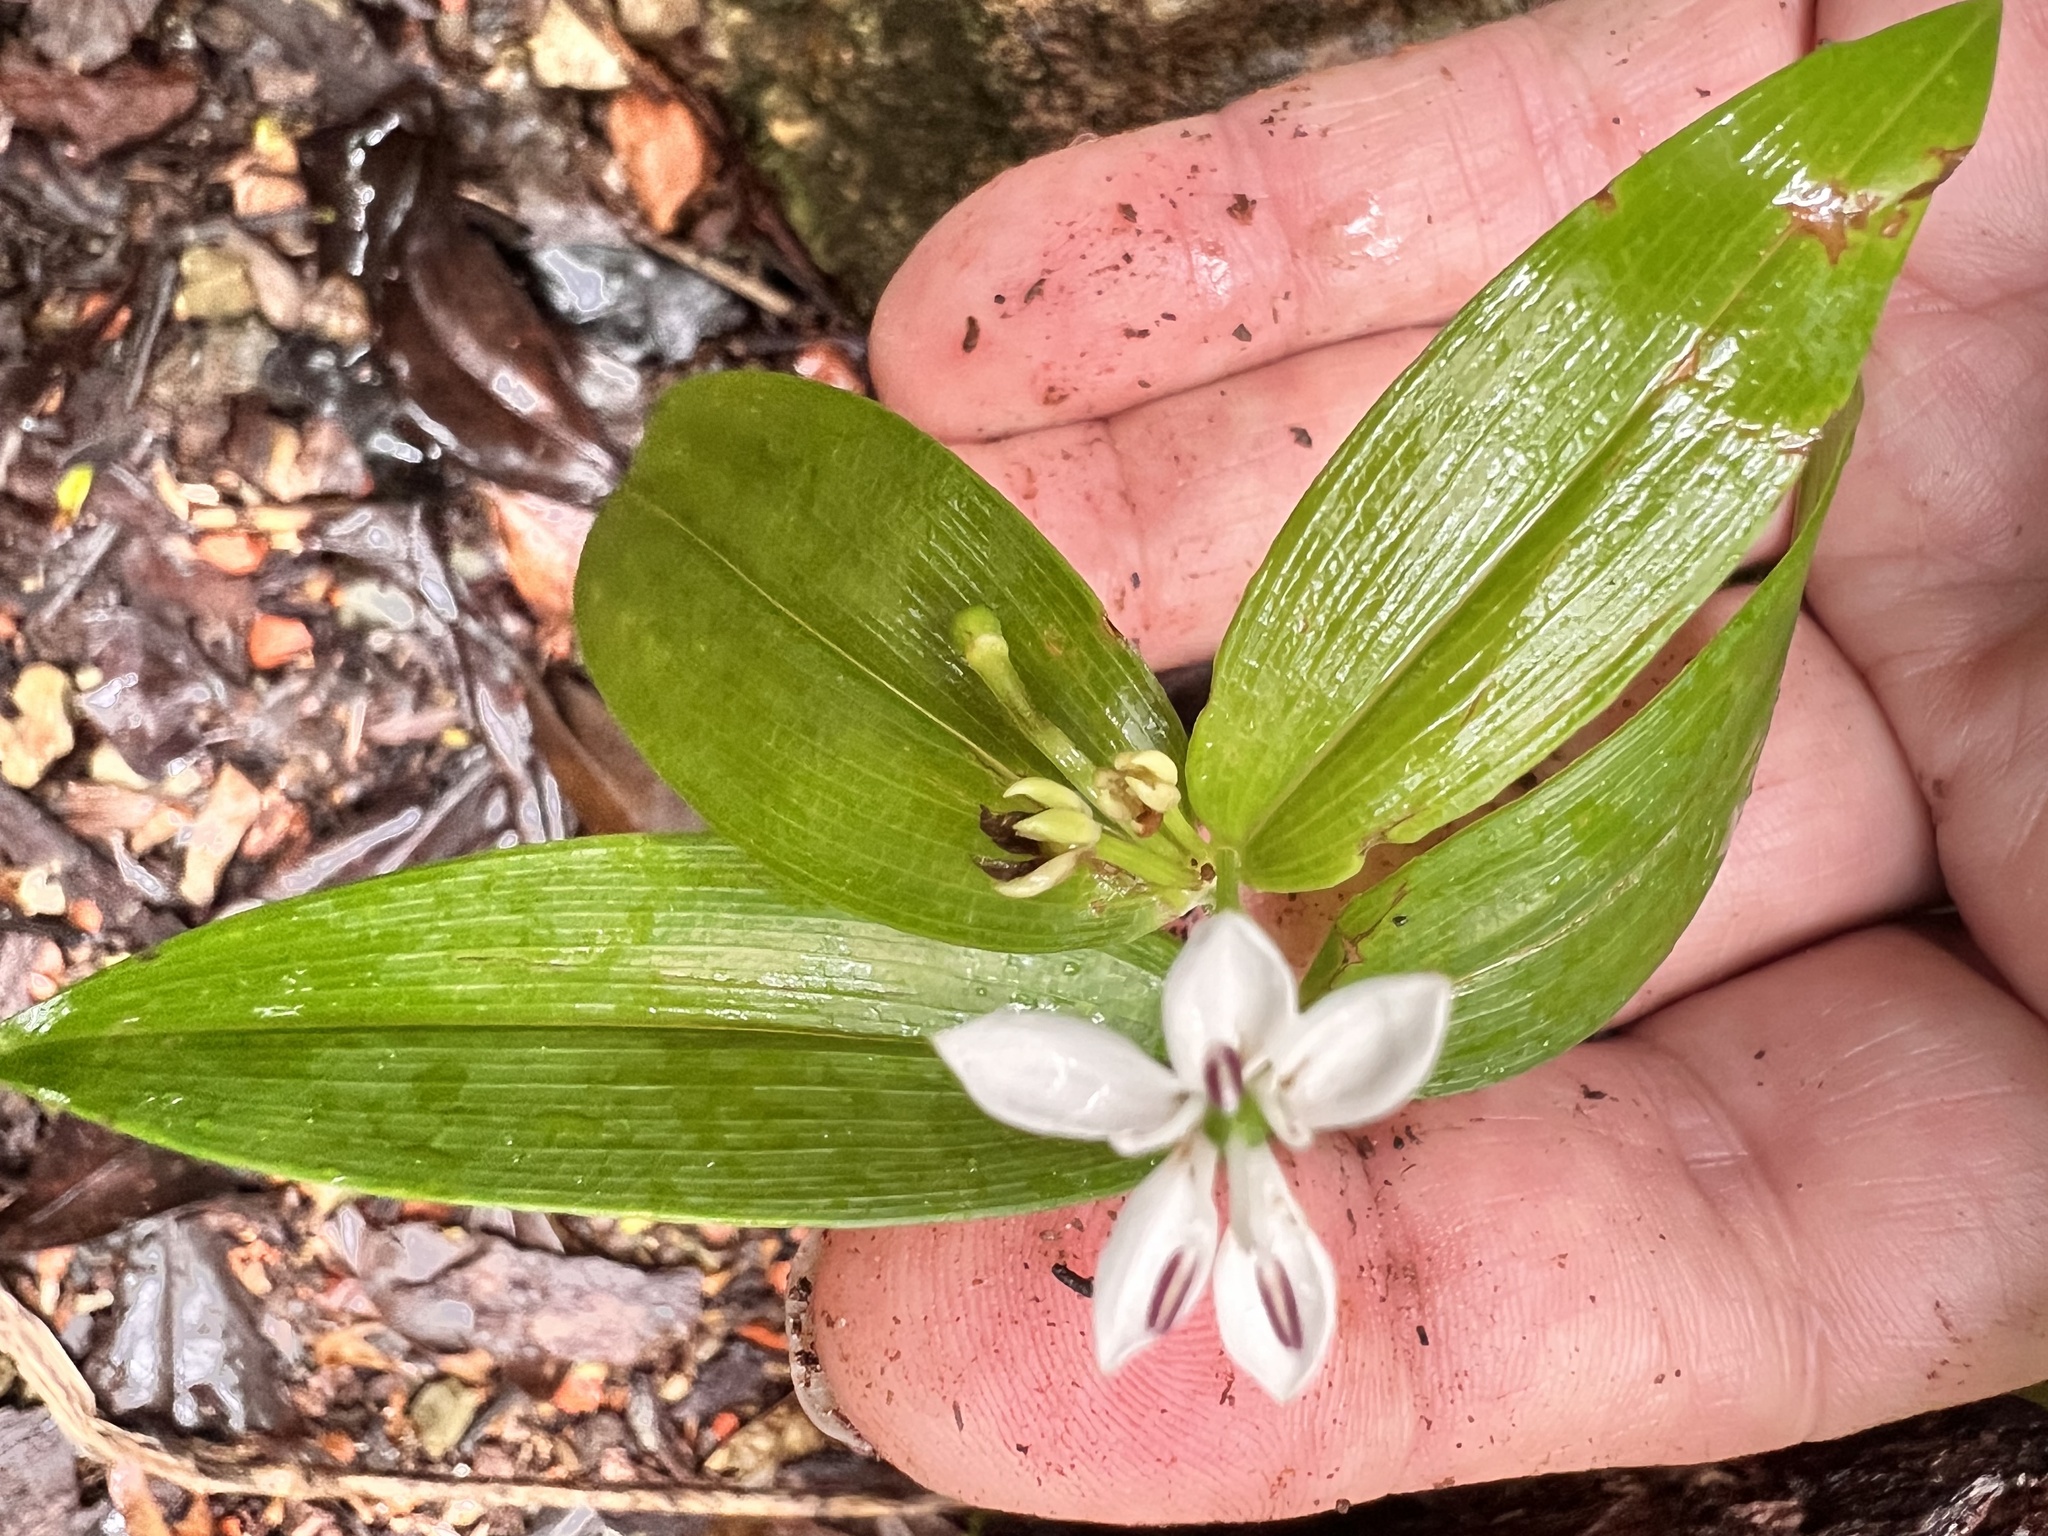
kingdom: Plantae
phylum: Tracheophyta
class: Liliopsida
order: Liliales
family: Colchicaceae
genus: Schelhammera
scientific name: Schelhammera multiflora
